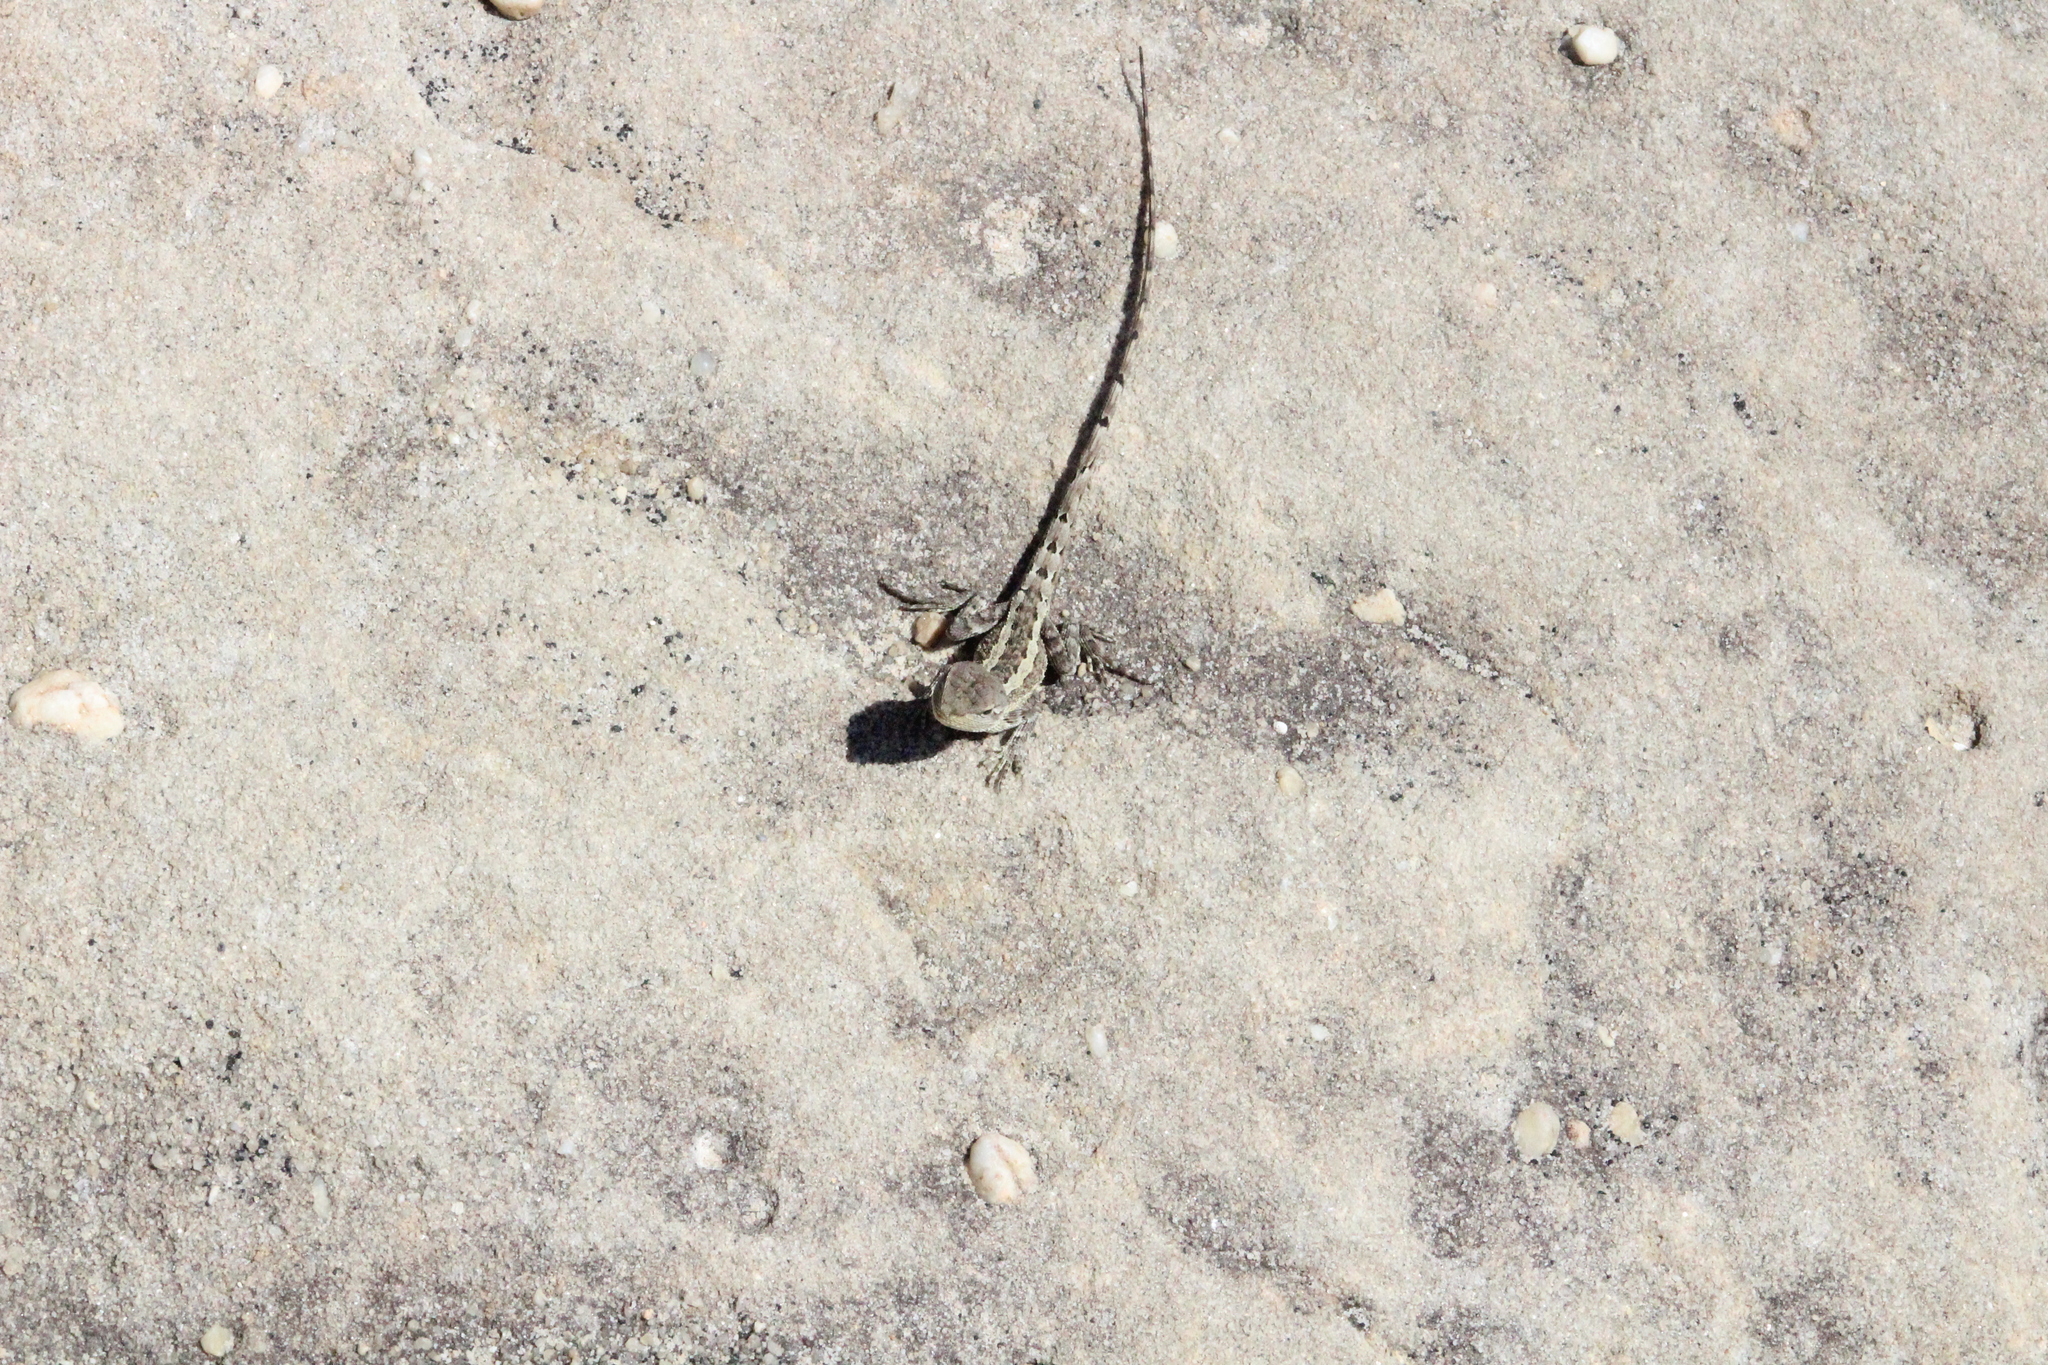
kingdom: Animalia
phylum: Chordata
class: Squamata
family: Agamidae
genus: Amphibolurus
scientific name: Amphibolurus muricatus
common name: Jacky lizard
